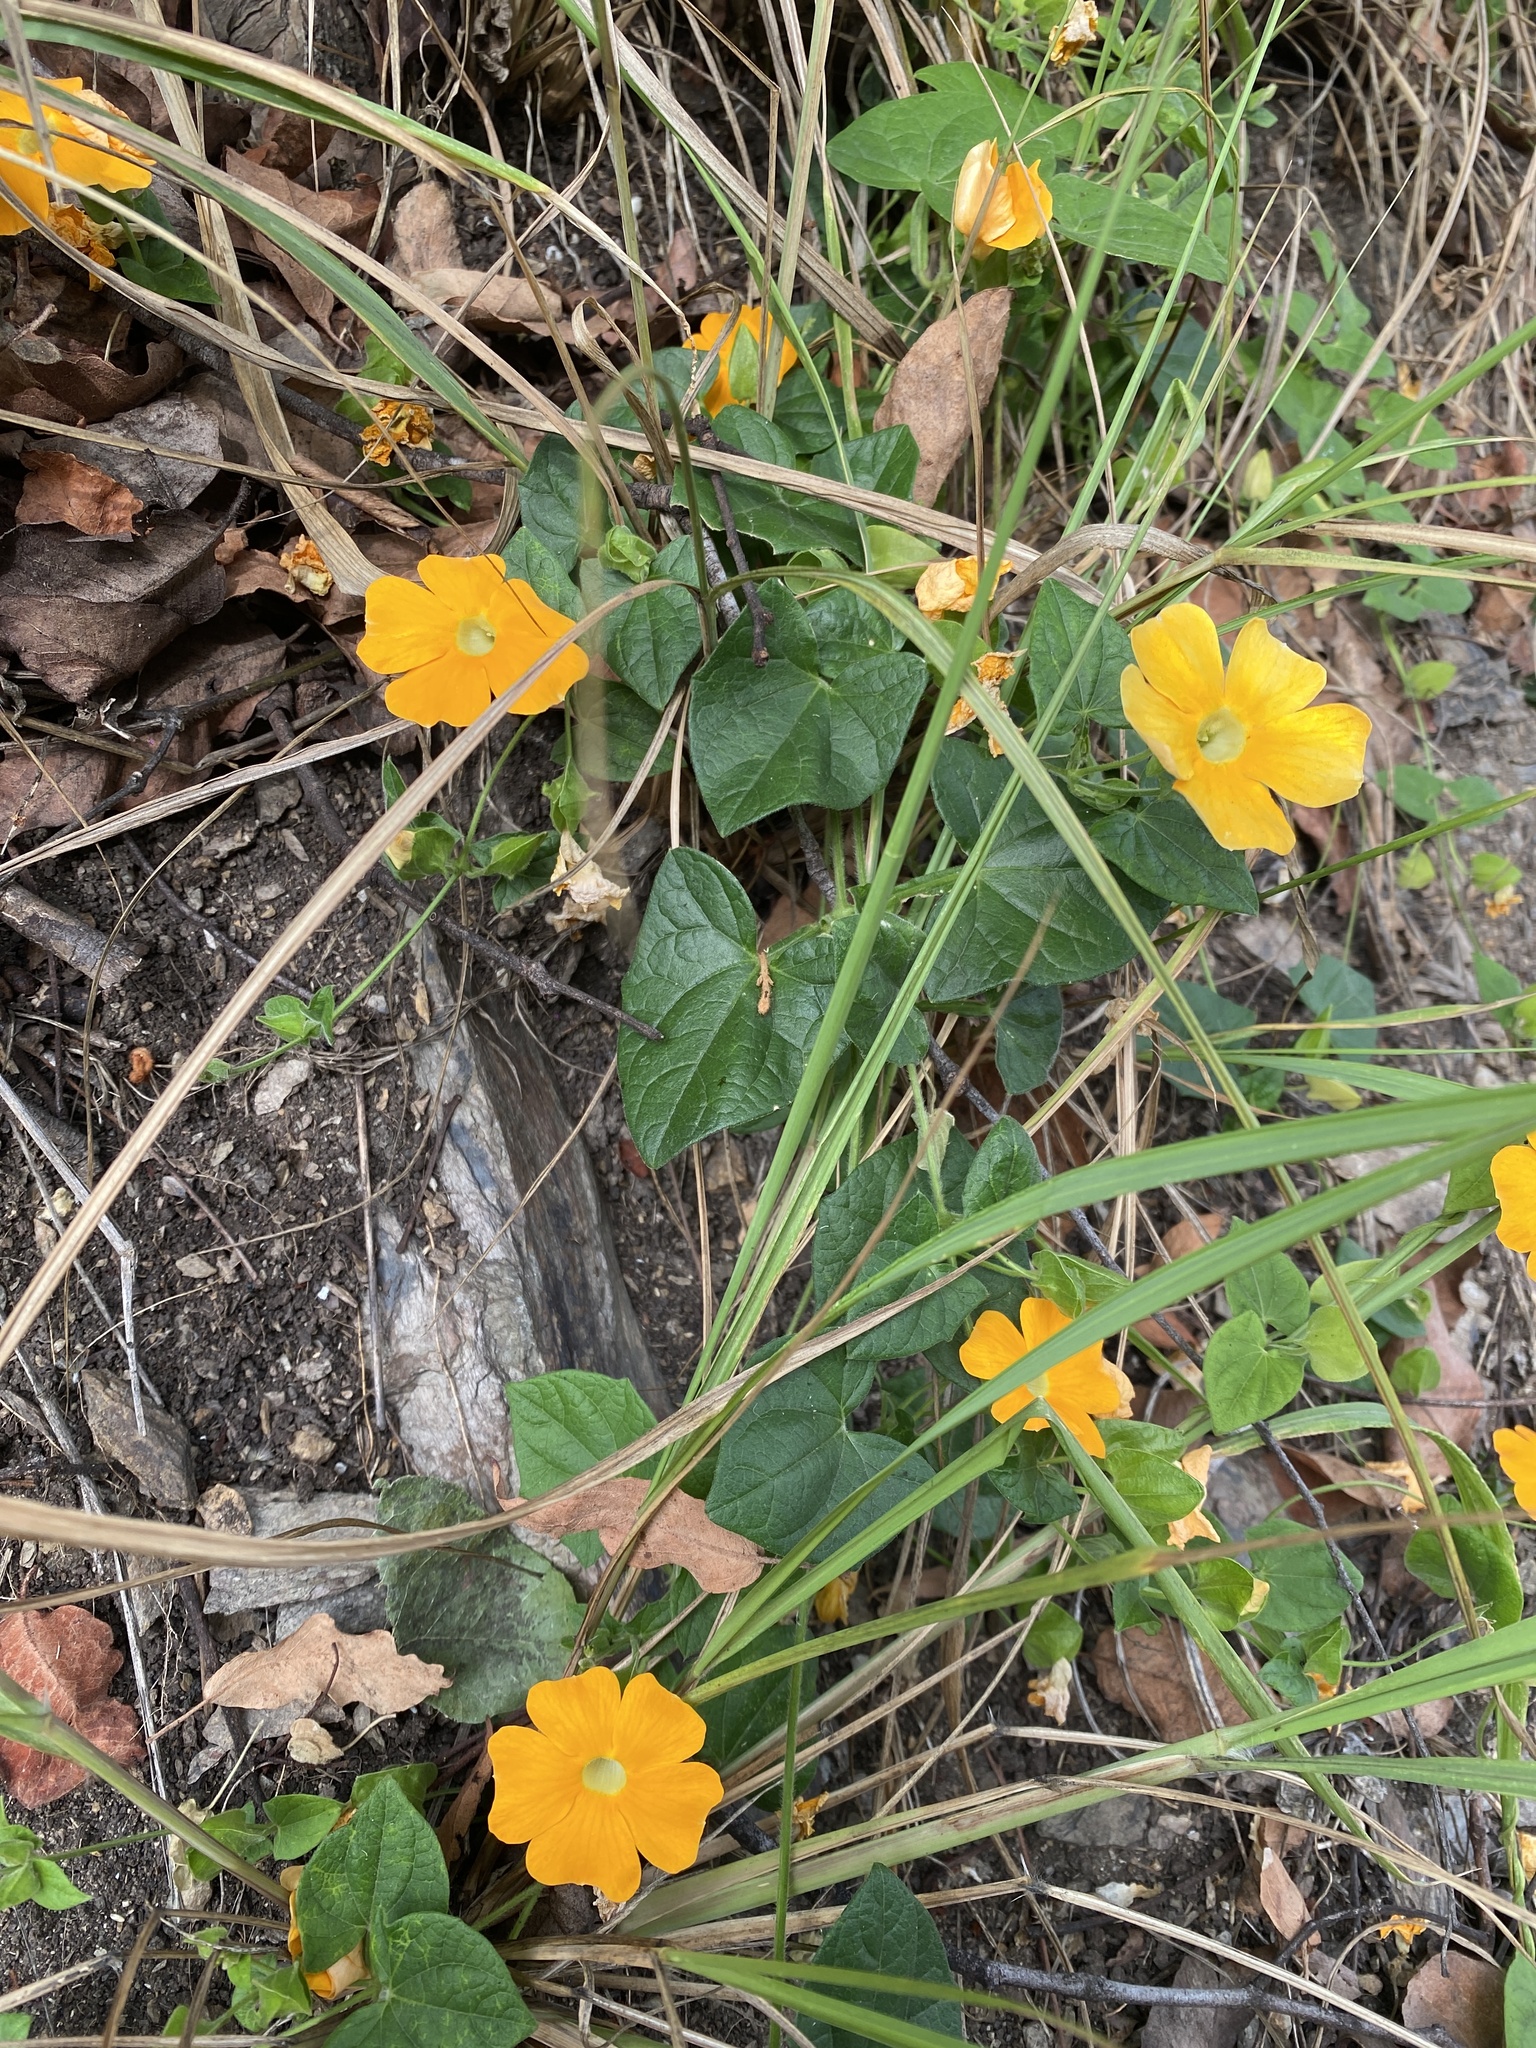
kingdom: Plantae
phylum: Tracheophyta
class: Magnoliopsida
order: Lamiales
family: Acanthaceae
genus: Thunbergia
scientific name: Thunbergia alata
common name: Blackeyed susan vine
